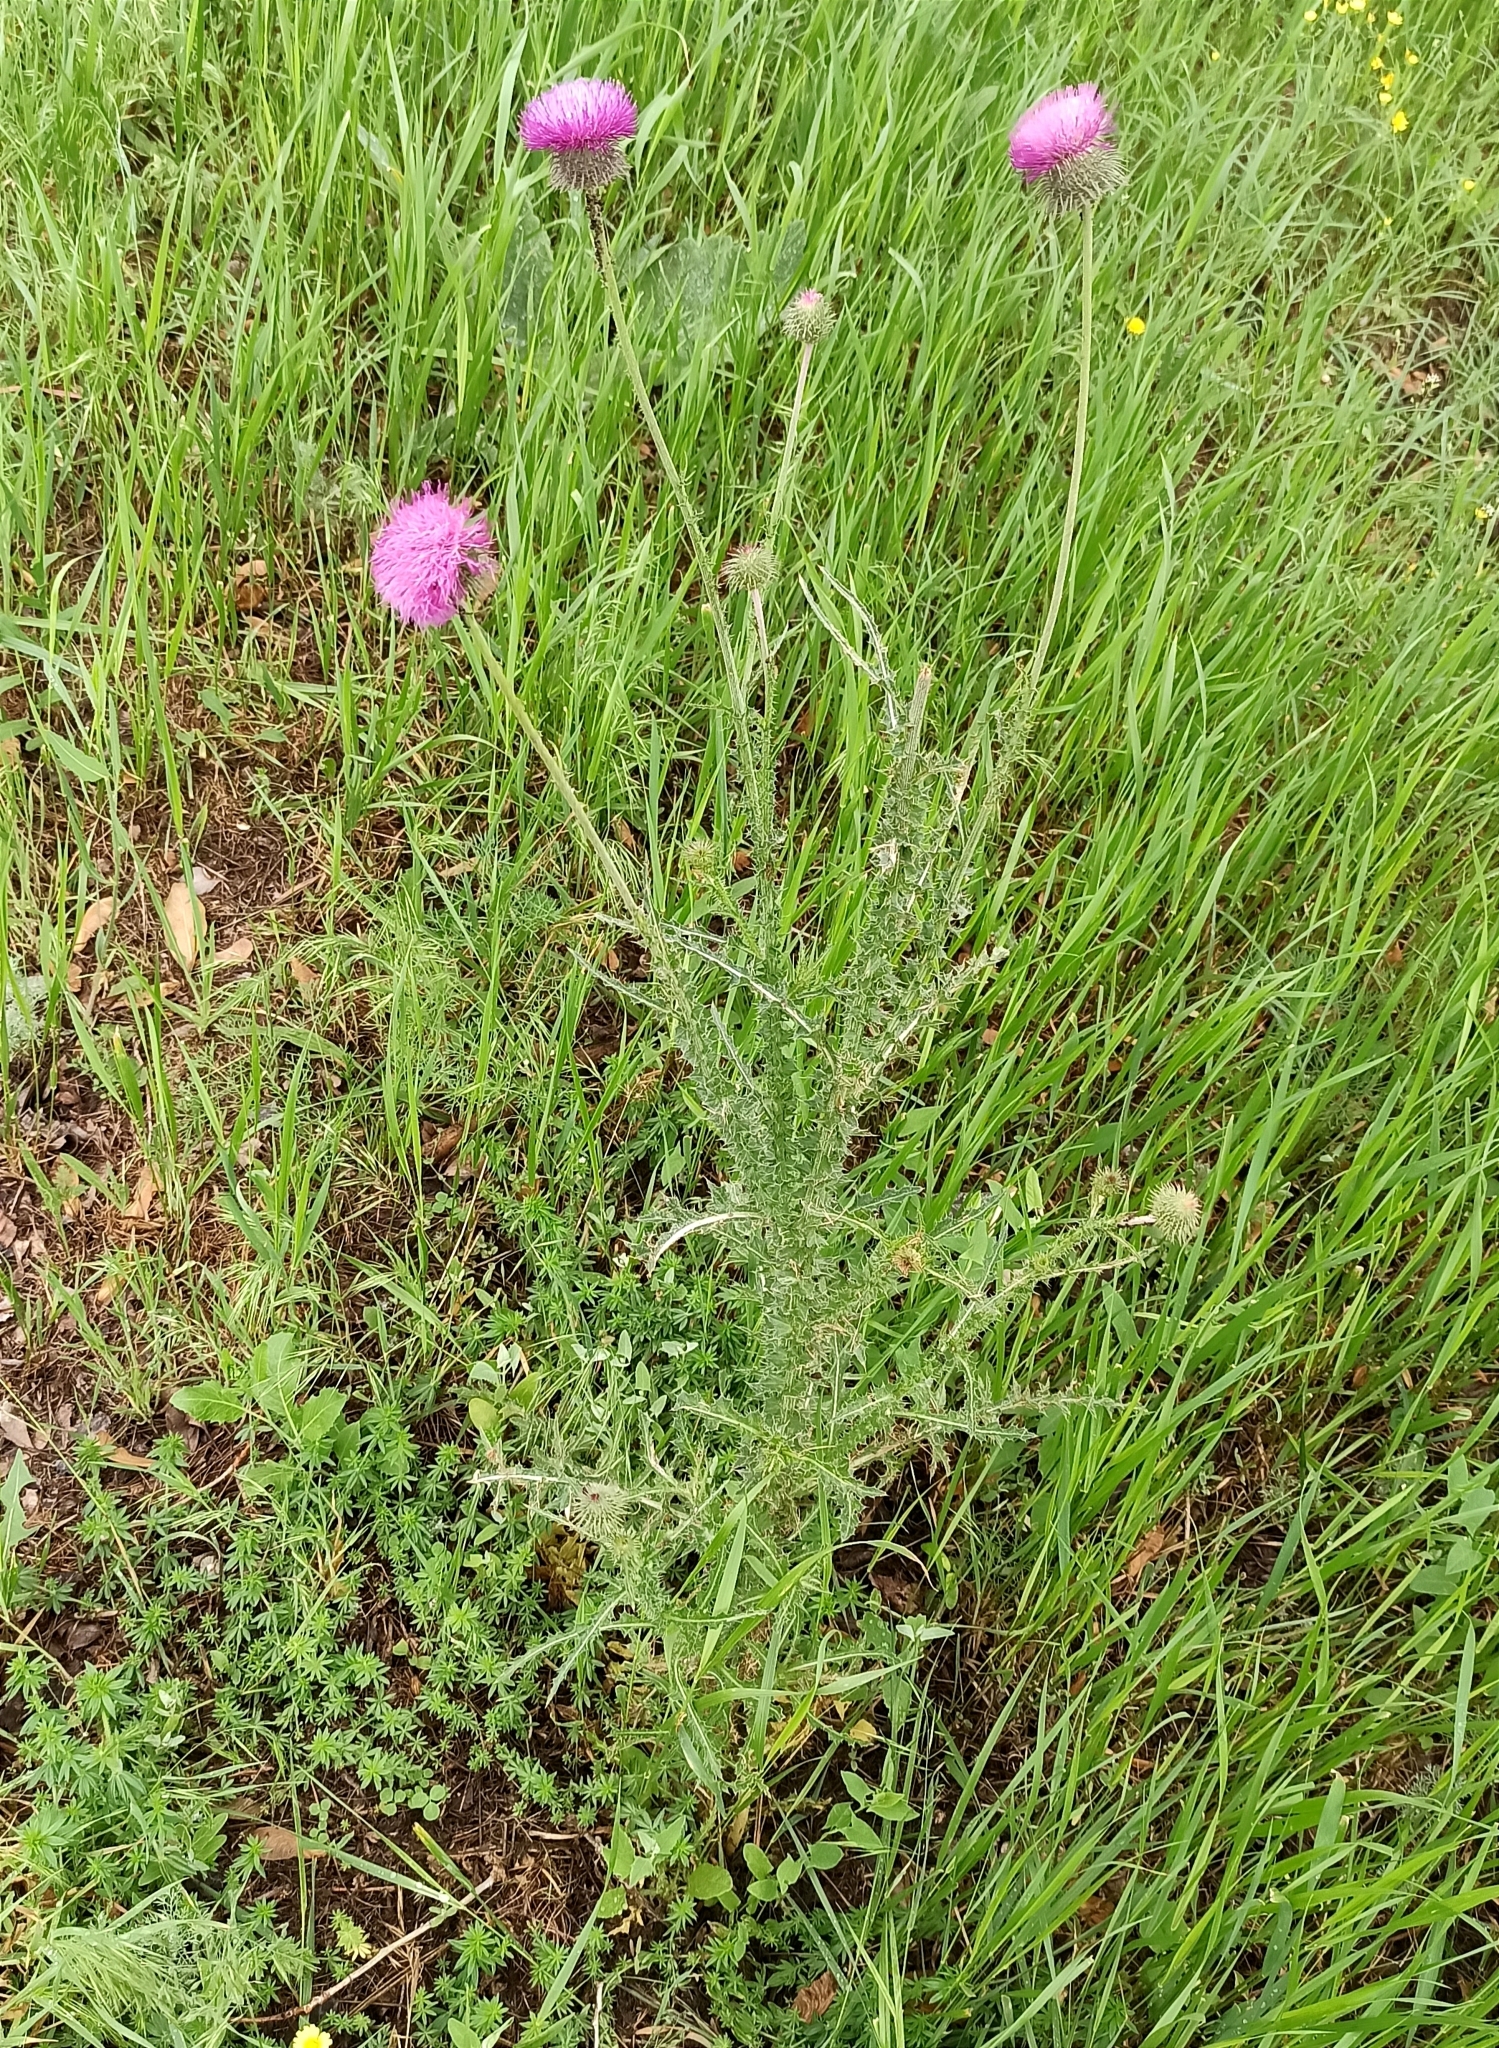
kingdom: Plantae
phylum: Tracheophyta
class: Magnoliopsida
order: Asterales
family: Asteraceae
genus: Carduus
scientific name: Carduus uncinatus
